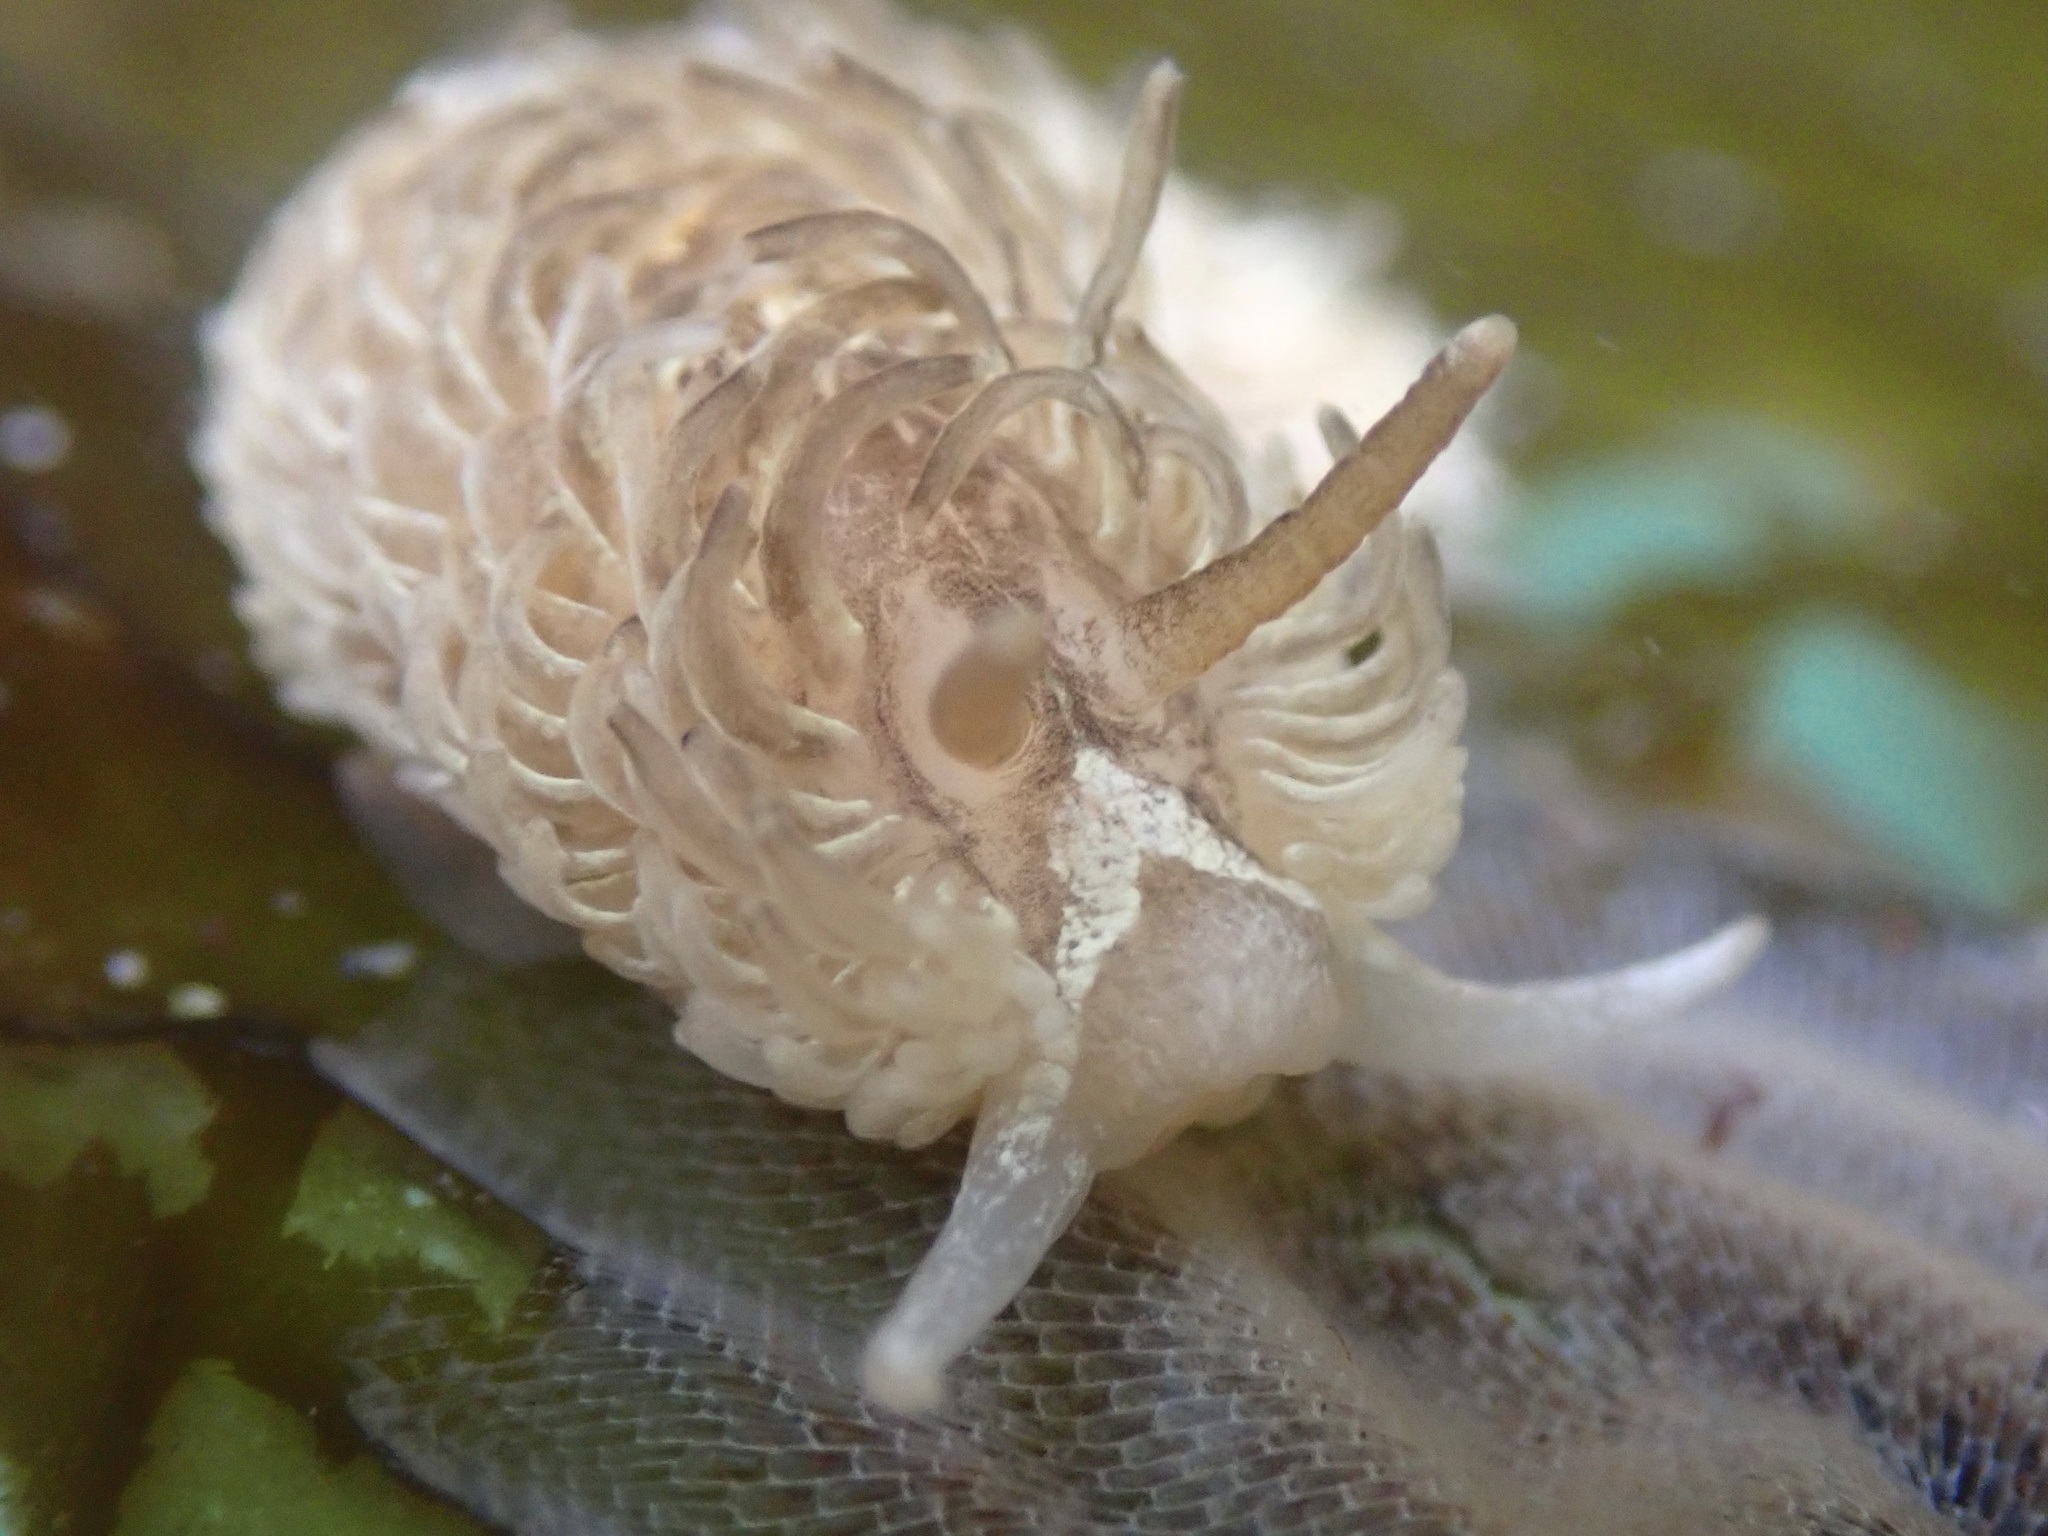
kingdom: Animalia
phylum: Mollusca
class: Gastropoda
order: Nudibranchia
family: Aeolidiidae
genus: Aeolidia
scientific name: Aeolidia loui
